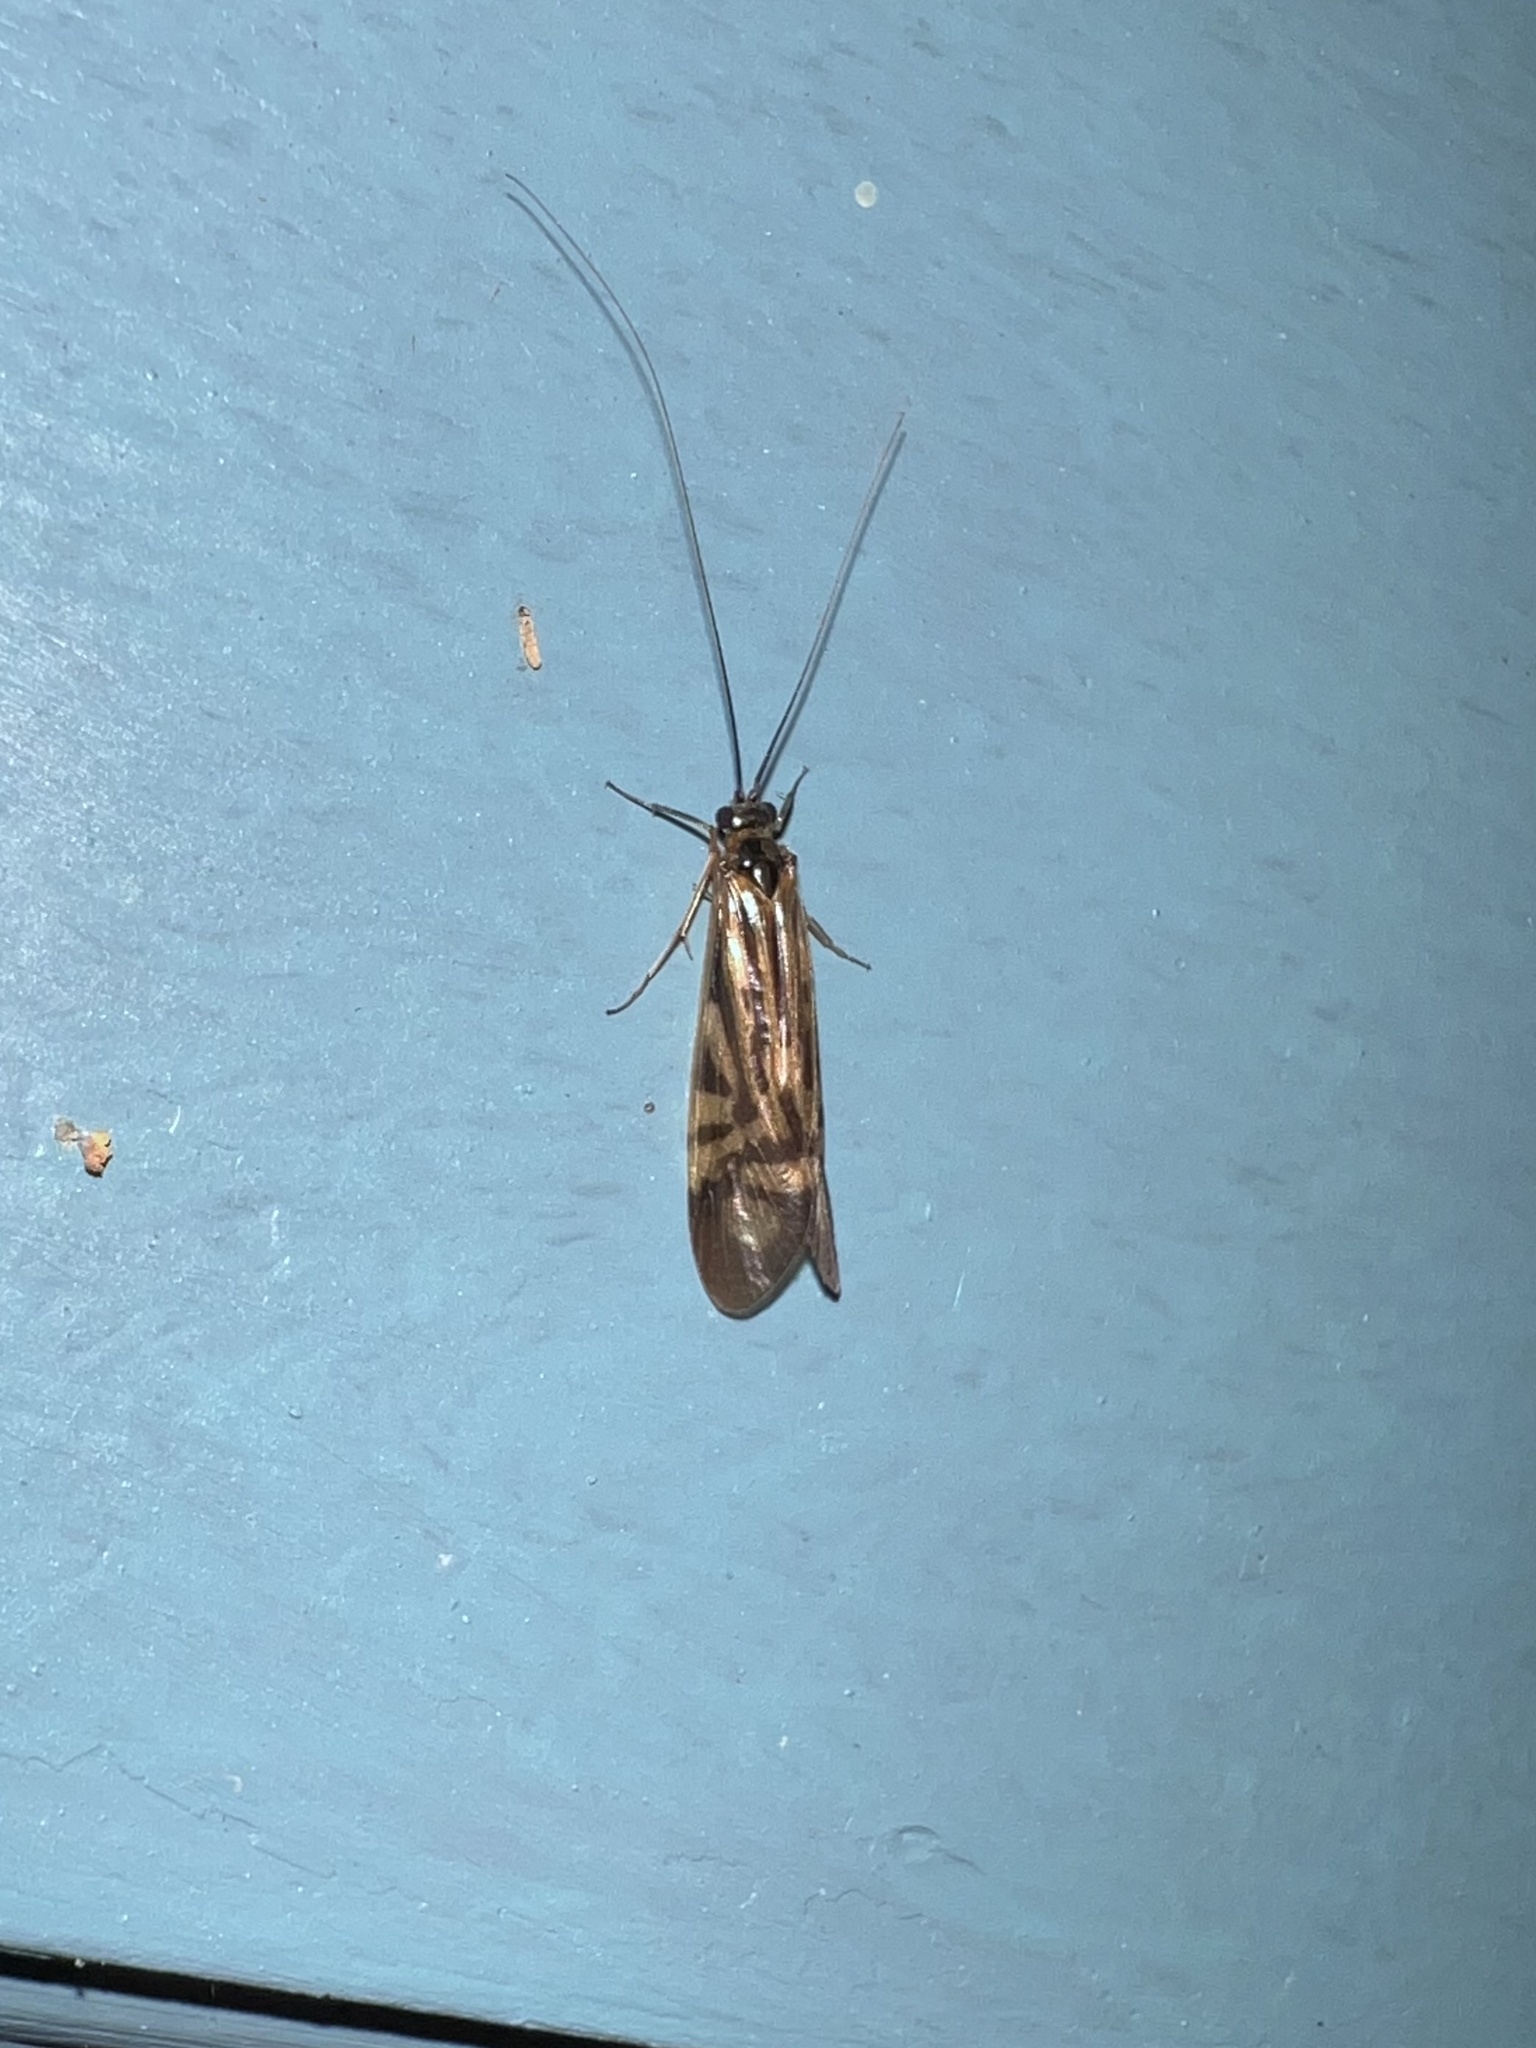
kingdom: Animalia
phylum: Arthropoda
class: Insecta
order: Trichoptera
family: Hydropsychidae
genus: Macrostemum
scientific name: Macrostemum zebratum
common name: Zebra caddisfly
